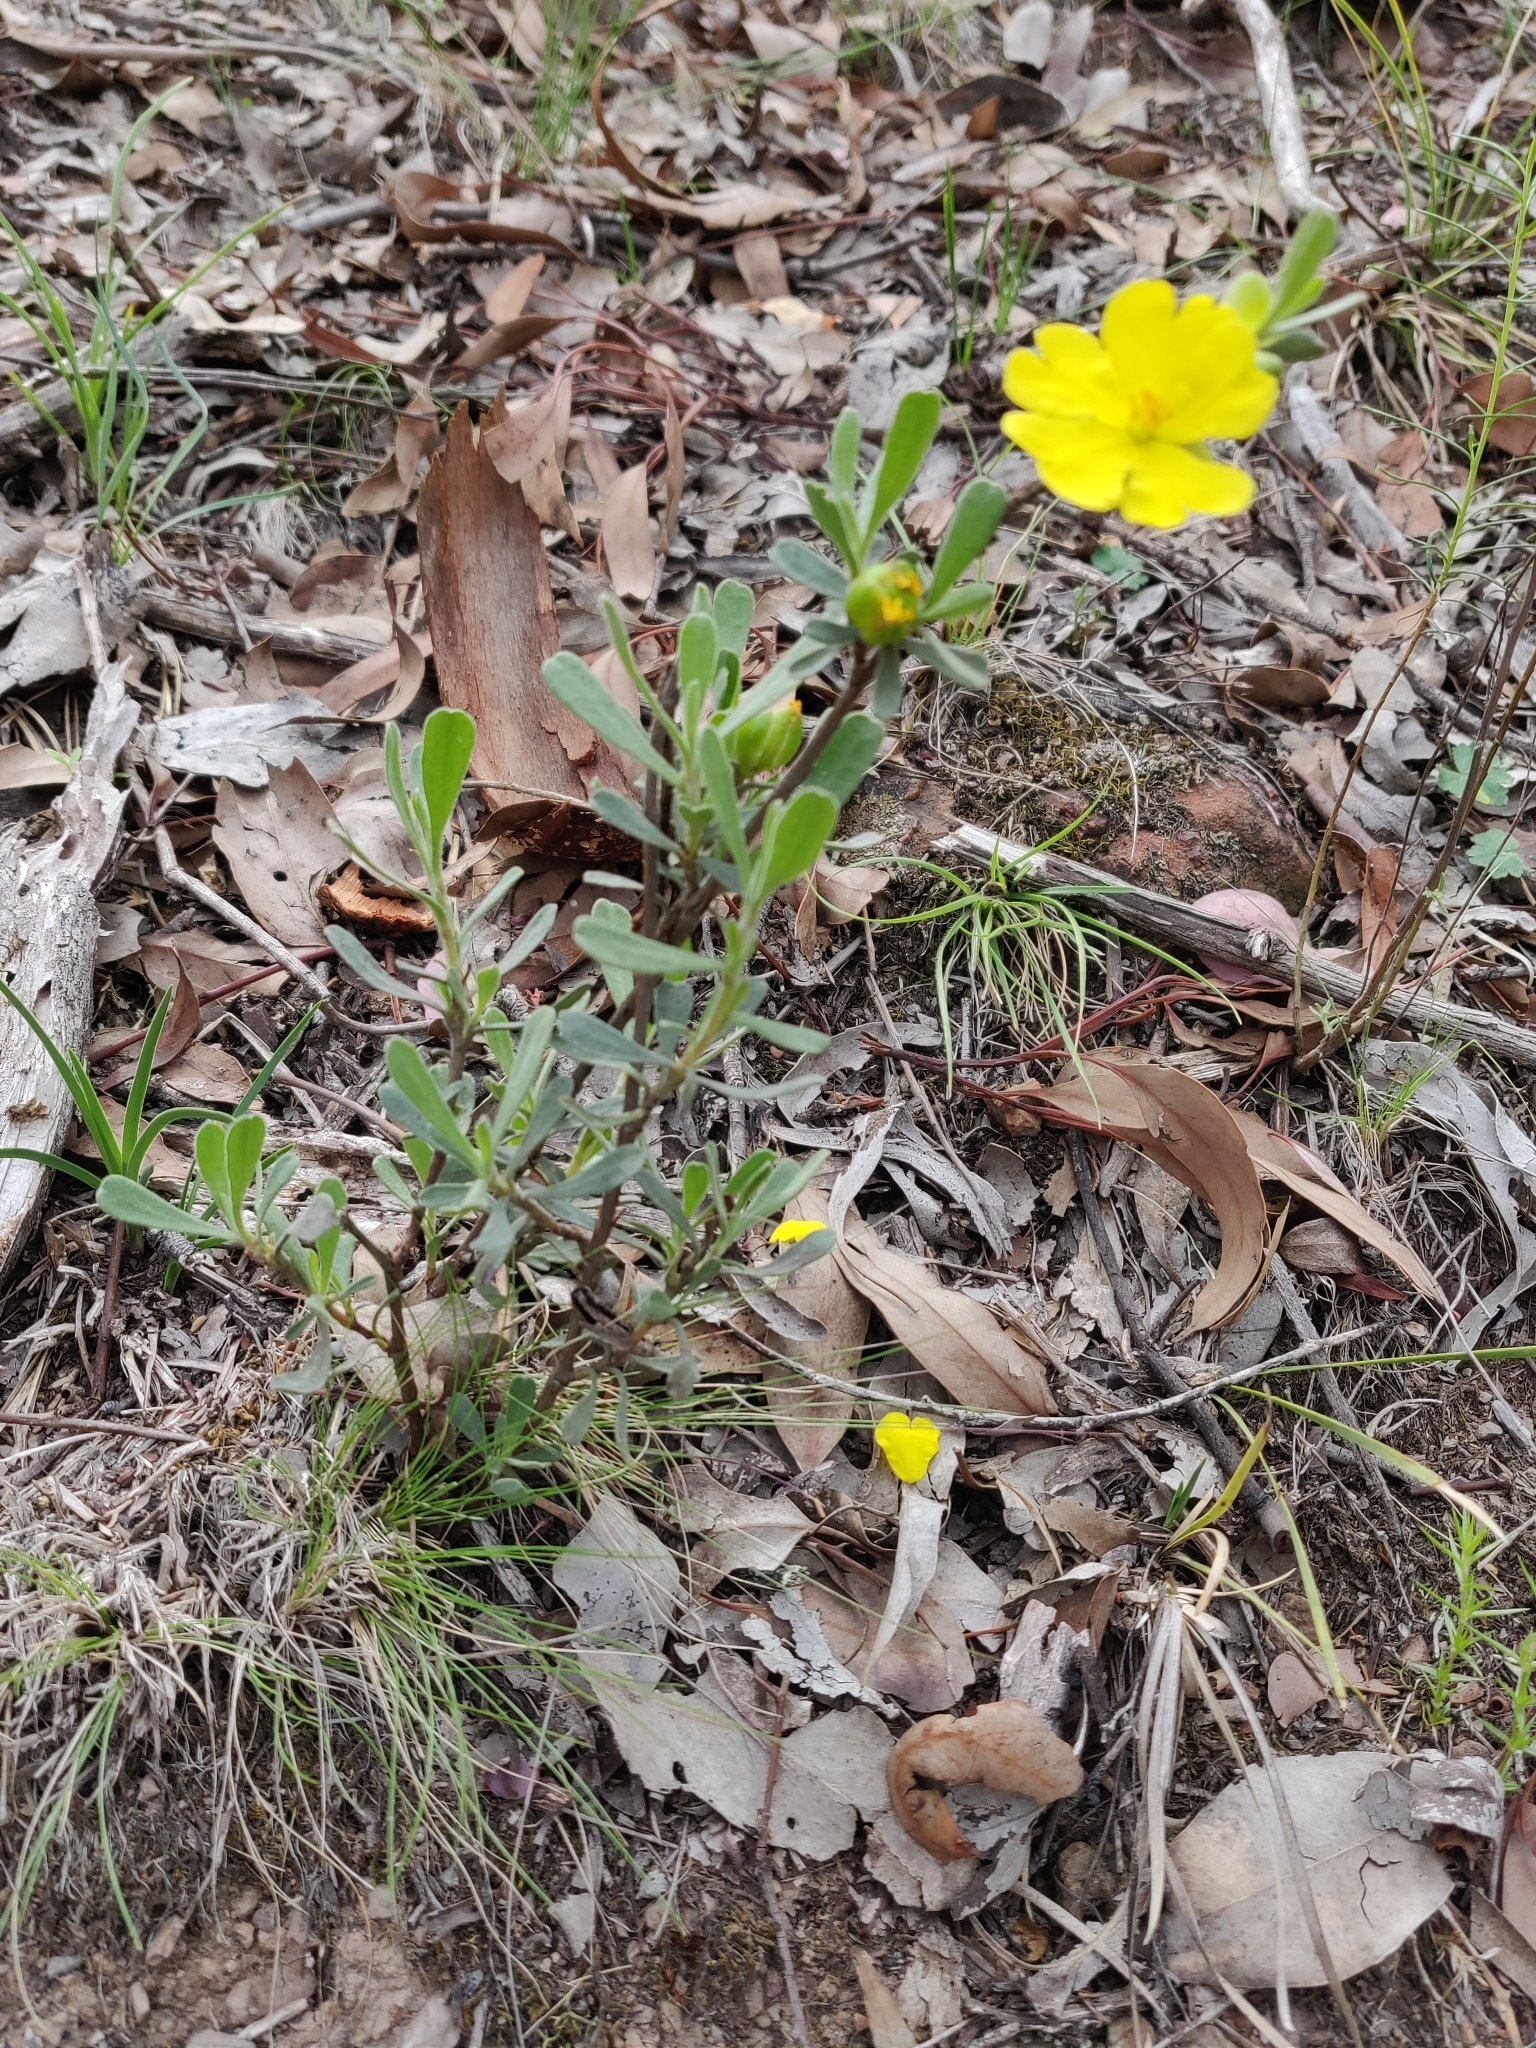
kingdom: Plantae
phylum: Tracheophyta
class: Magnoliopsida
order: Dilleniales
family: Dilleniaceae
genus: Hibbertia
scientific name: Hibbertia obtusifolia
